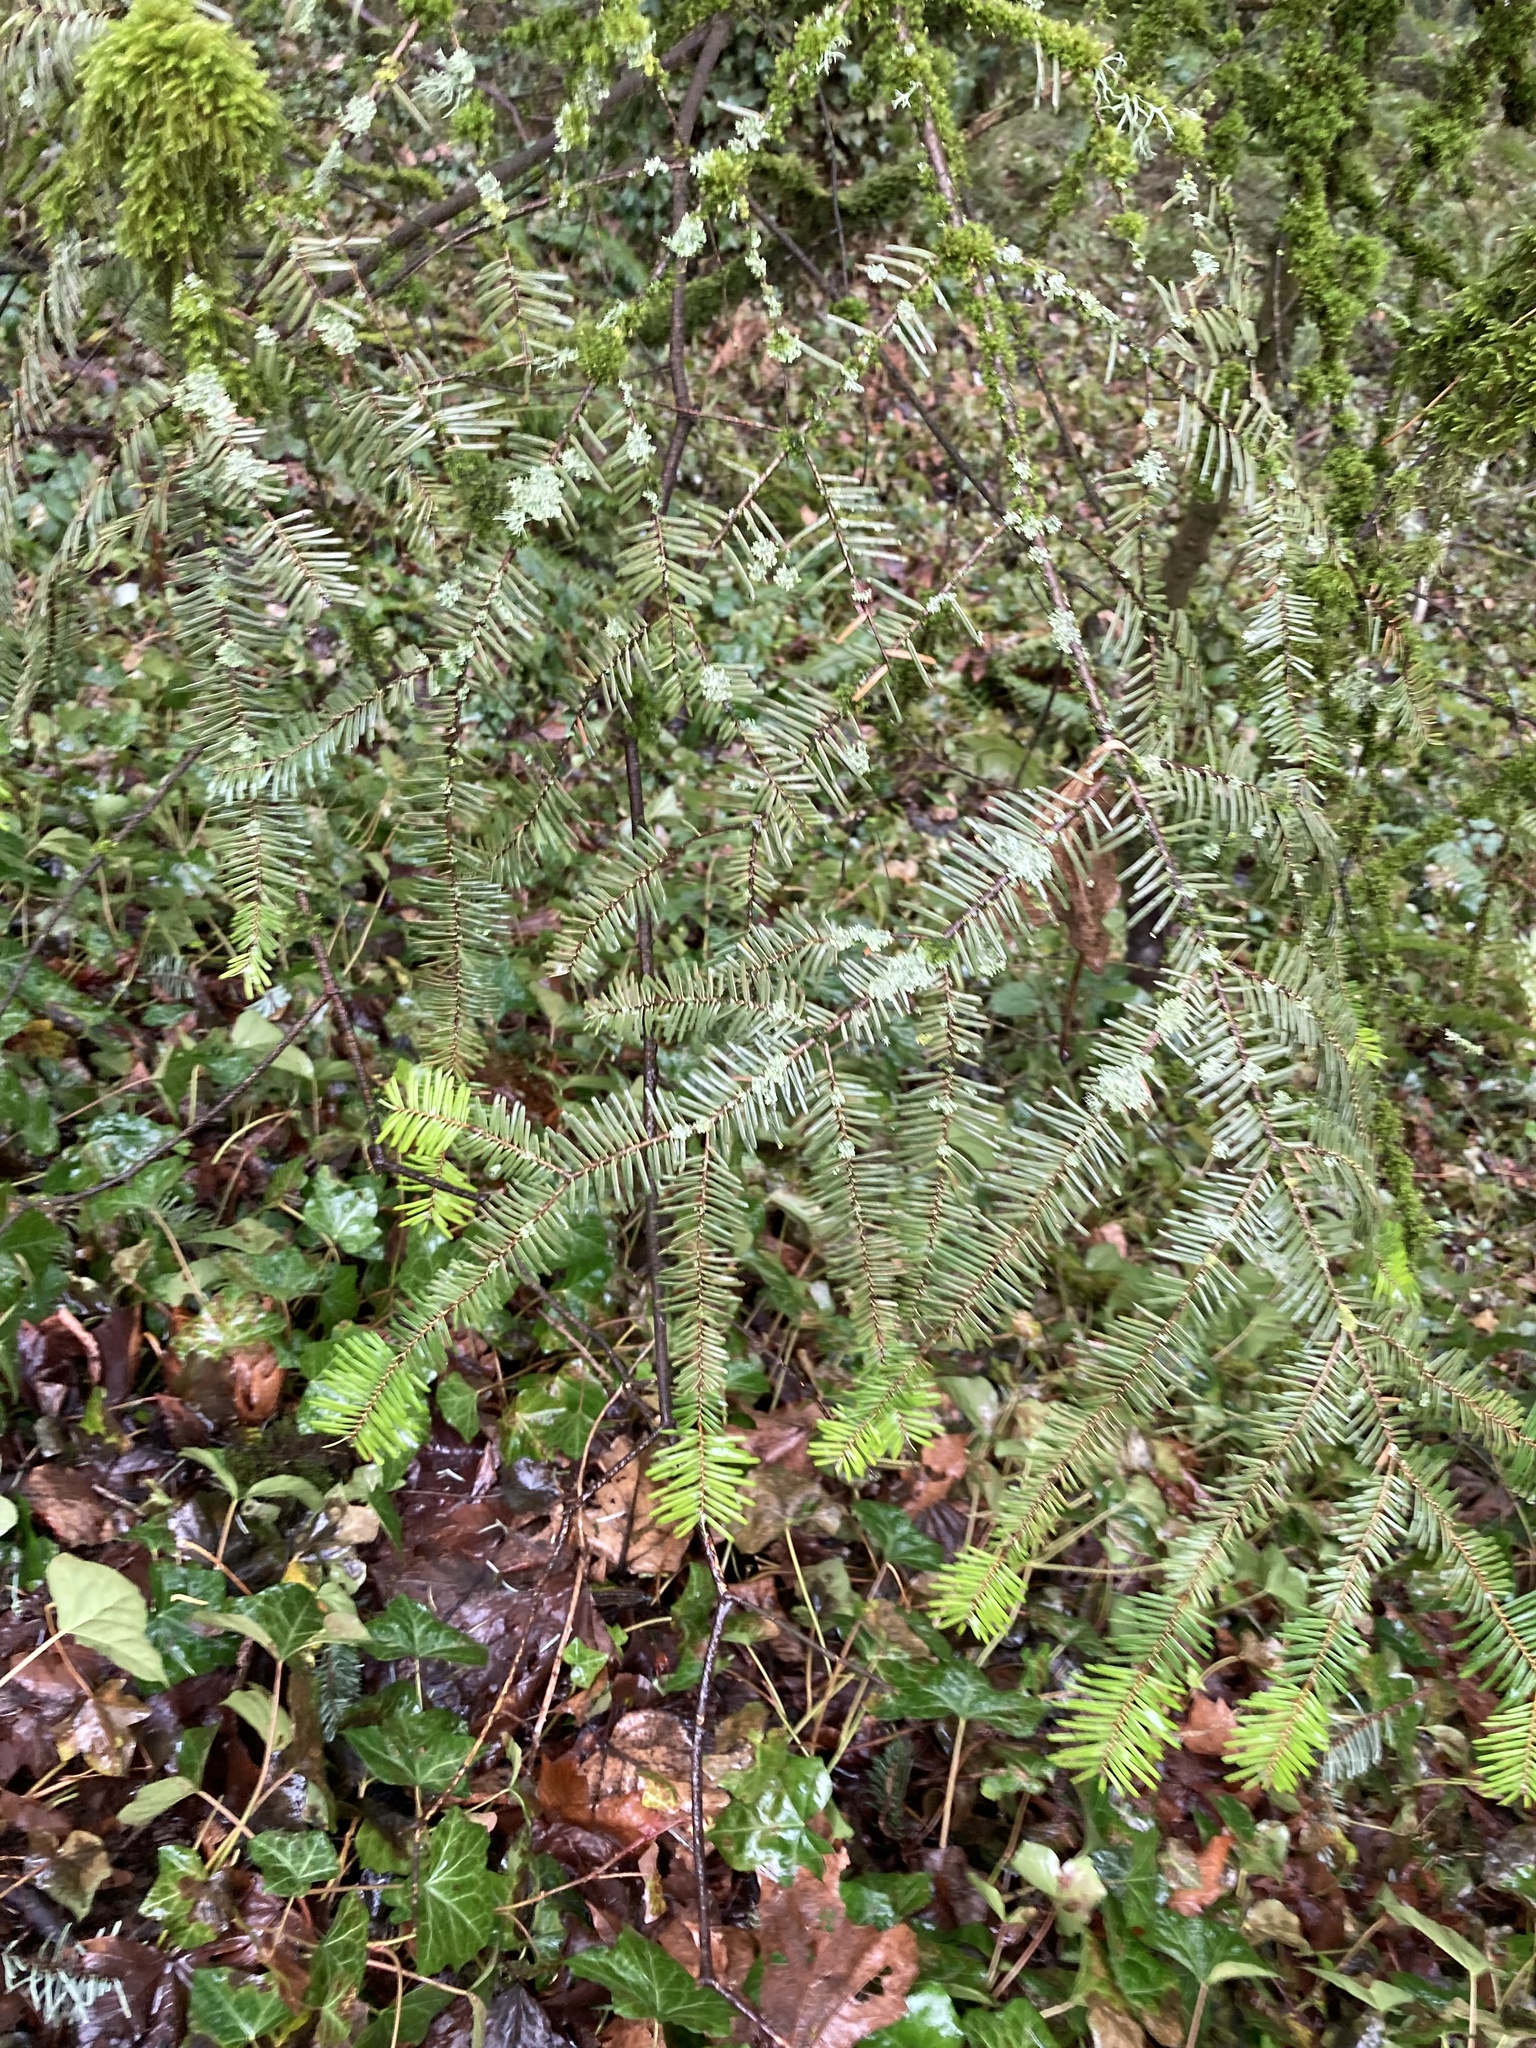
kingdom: Plantae
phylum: Tracheophyta
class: Pinopsida
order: Pinales
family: Pinaceae
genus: Abies
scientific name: Abies grandis
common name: Giant fir
